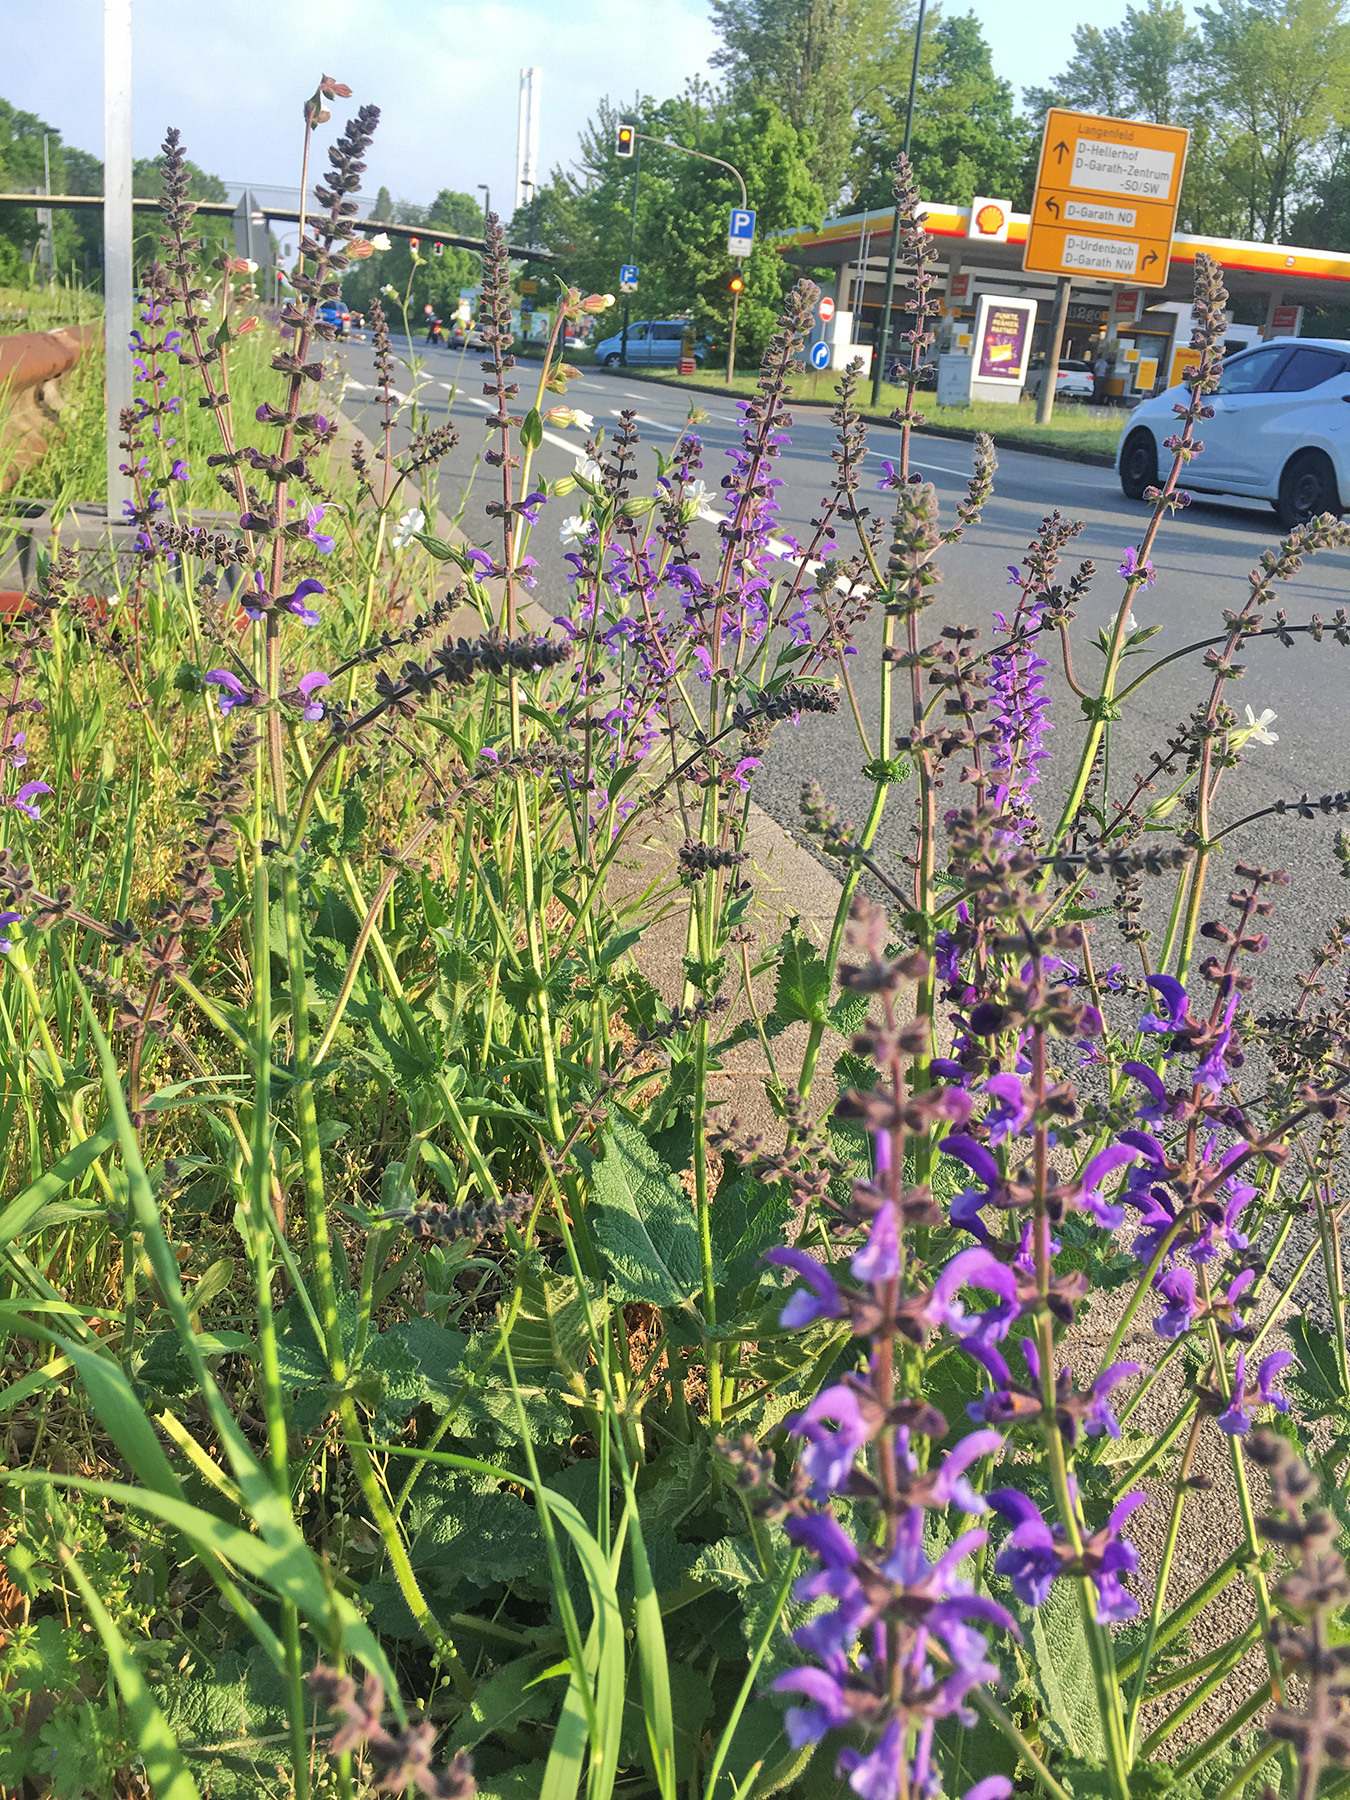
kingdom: Plantae
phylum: Tracheophyta
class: Magnoliopsida
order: Lamiales
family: Lamiaceae
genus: Salvia
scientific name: Salvia pratensis
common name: Meadow sage
